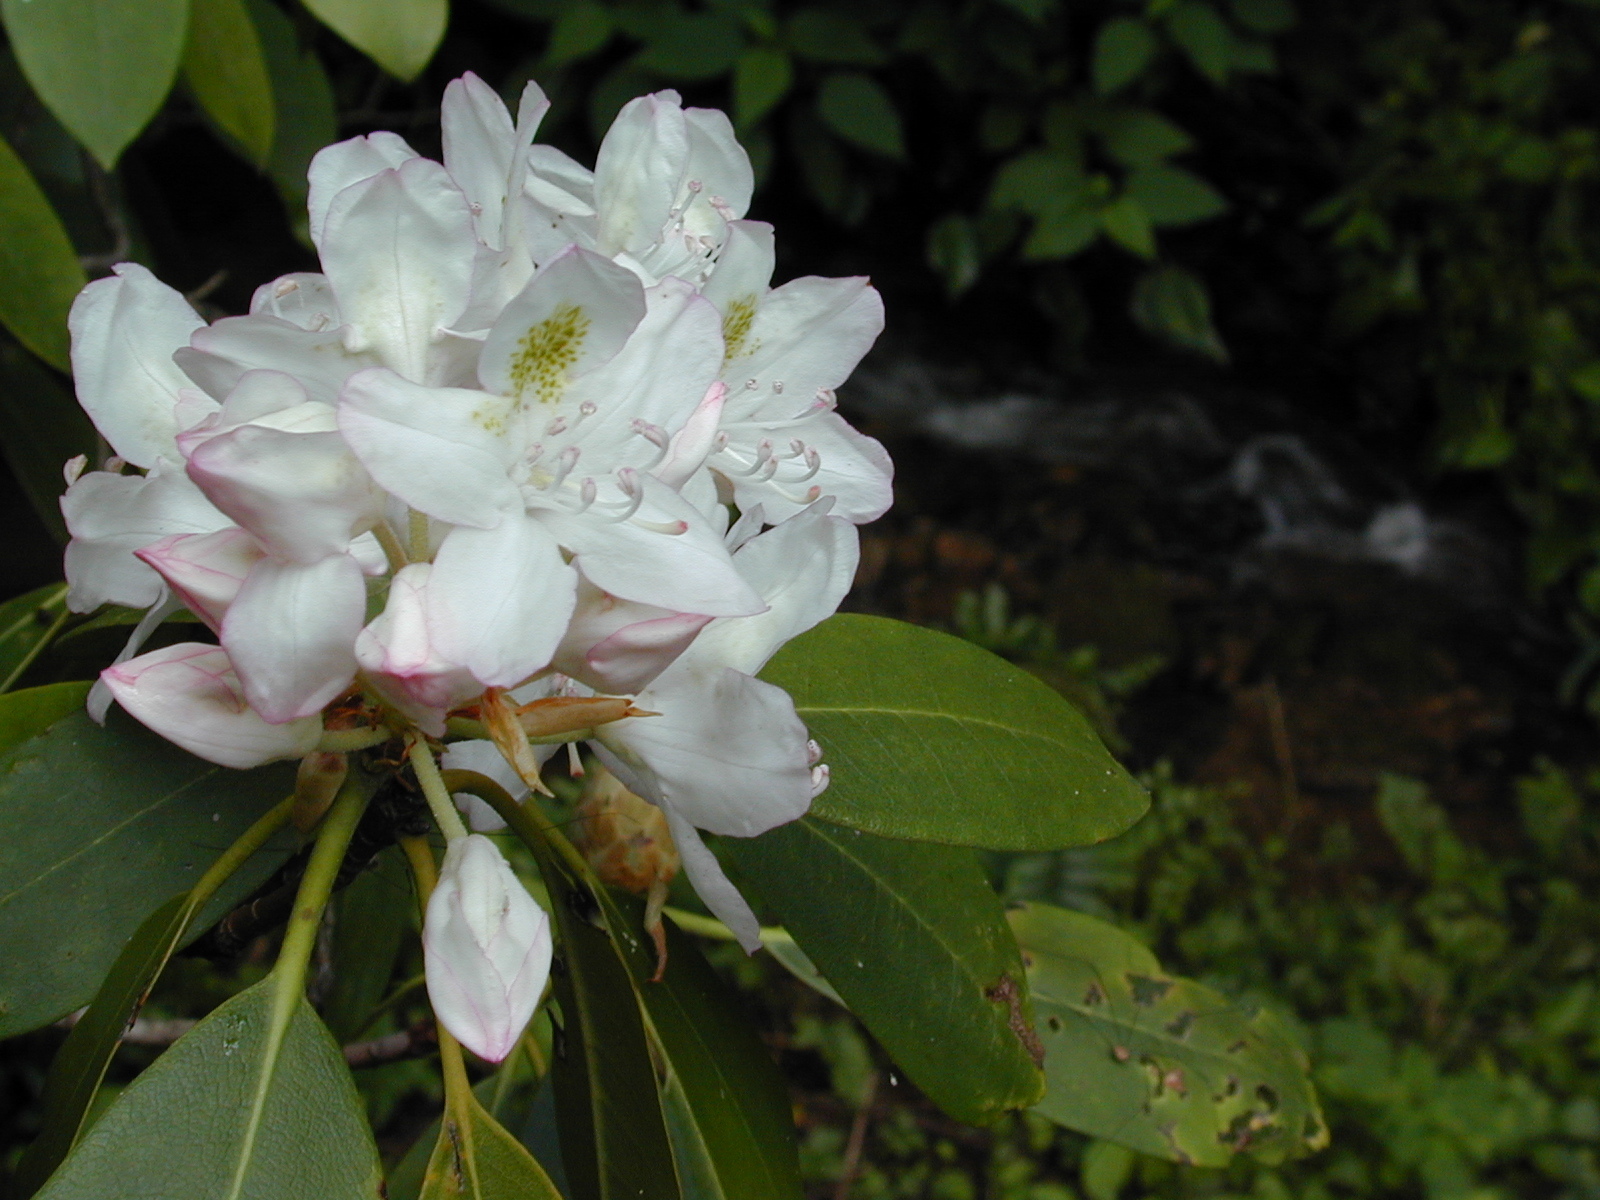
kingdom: Plantae
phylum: Tracheophyta
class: Magnoliopsida
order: Ericales
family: Ericaceae
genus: Rhododendron
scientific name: Rhododendron maximum
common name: Great rhododendron
